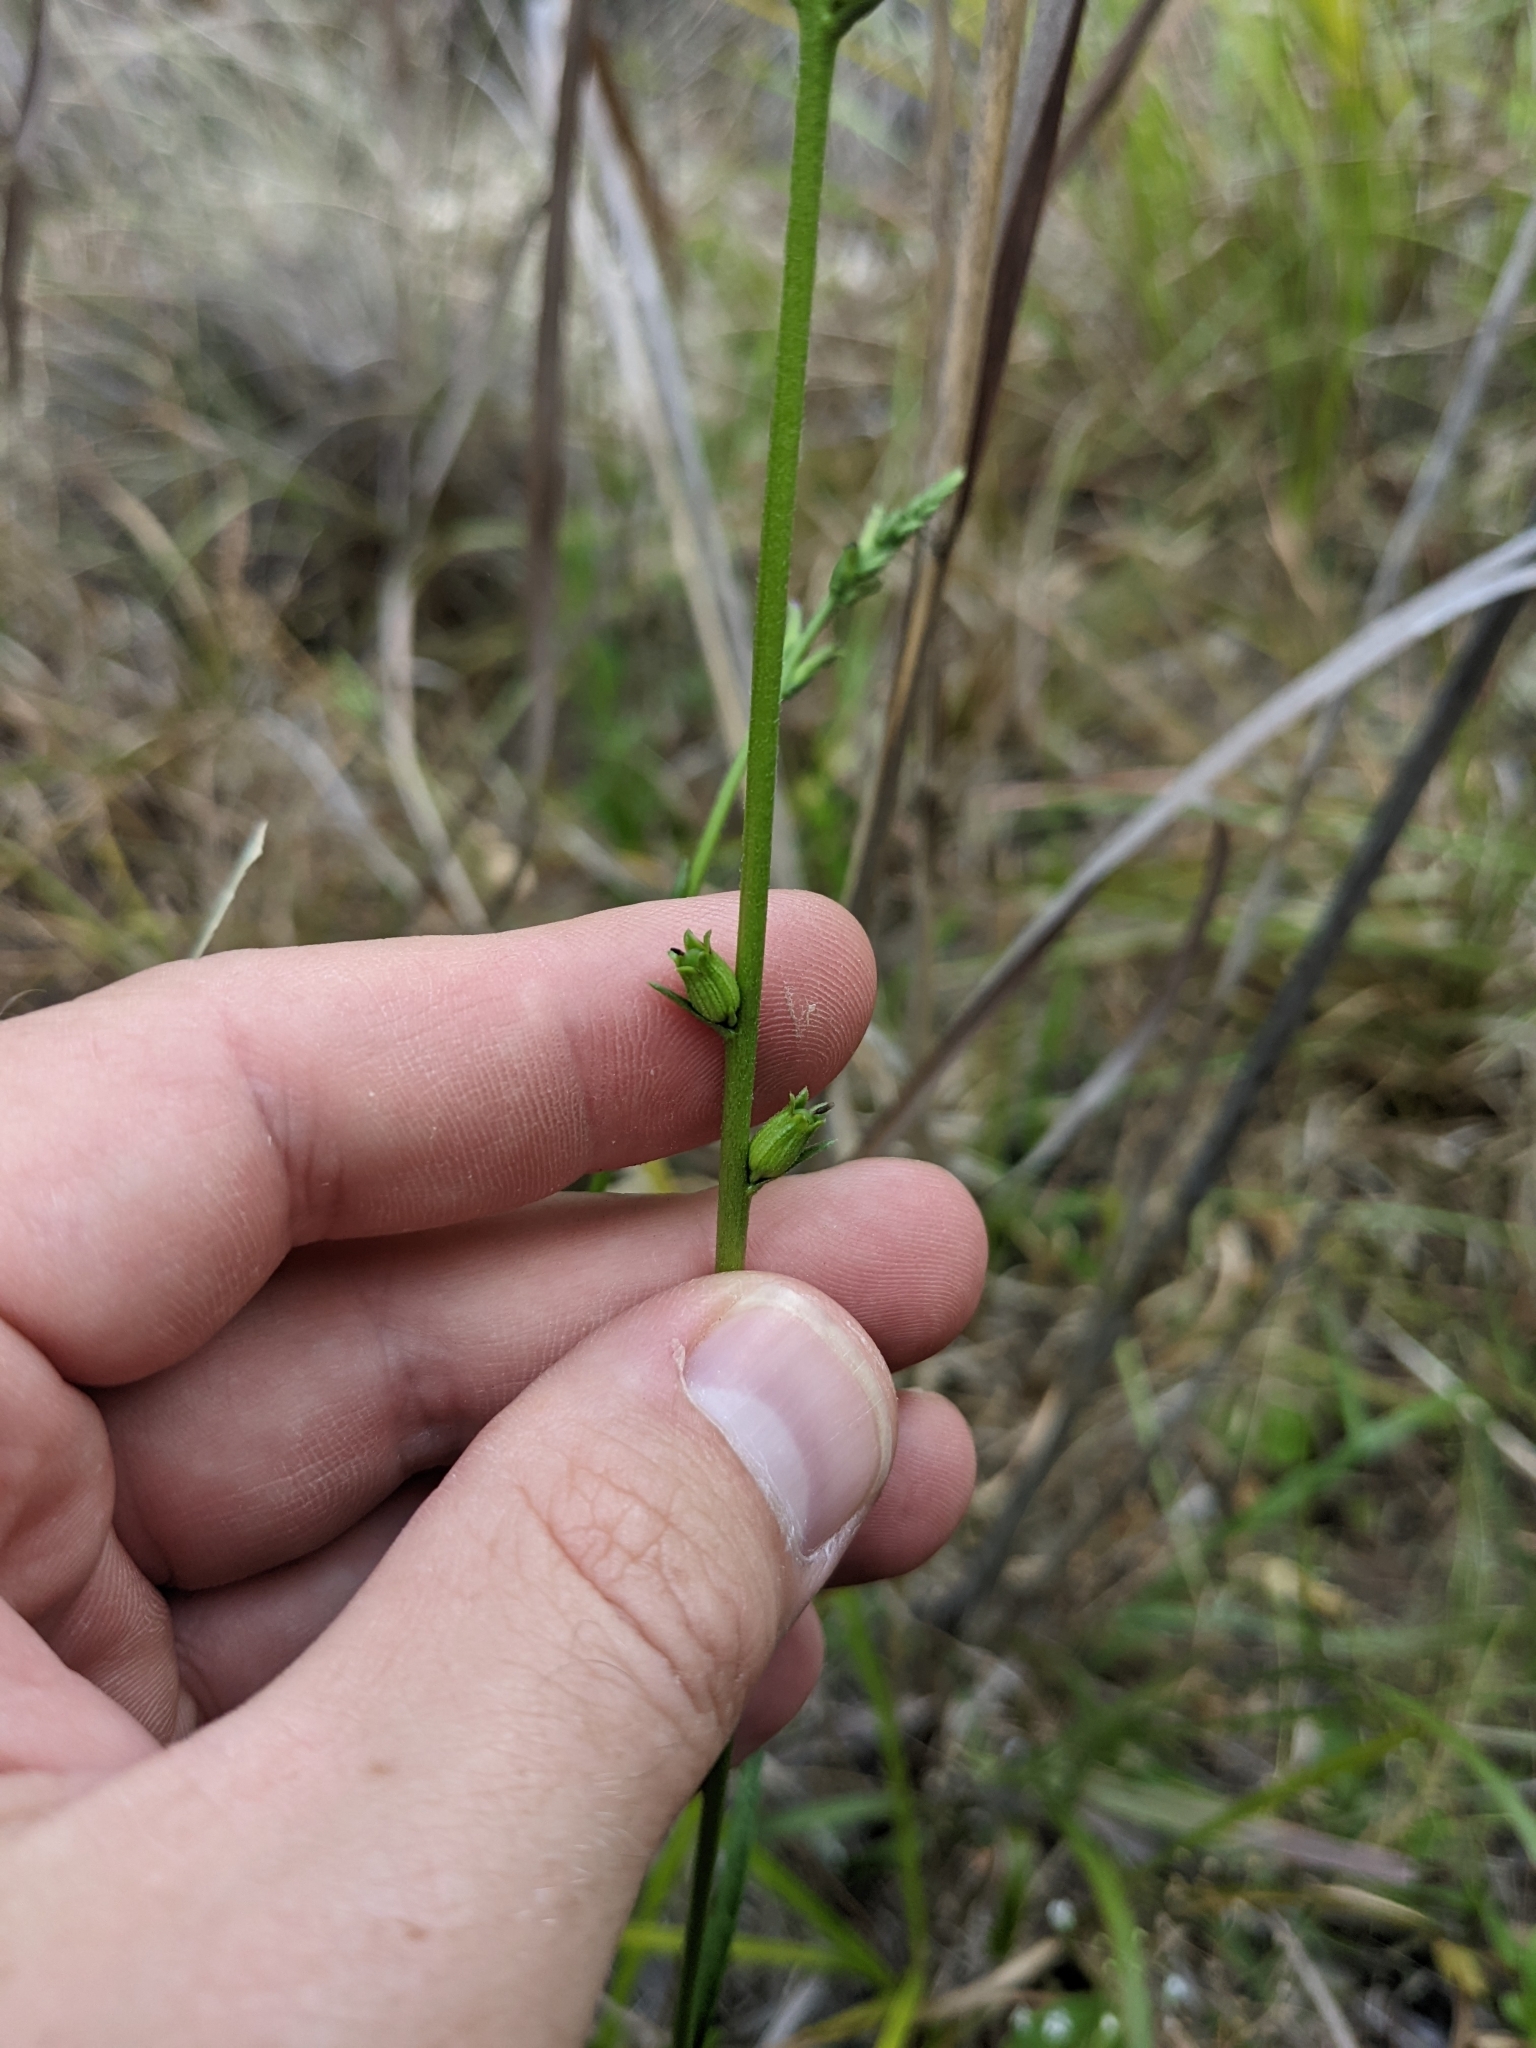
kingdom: Plantae
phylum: Tracheophyta
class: Magnoliopsida
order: Lamiales
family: Orobanchaceae
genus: Buchnera
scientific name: Buchnera floridana
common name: Florida bluehearts
